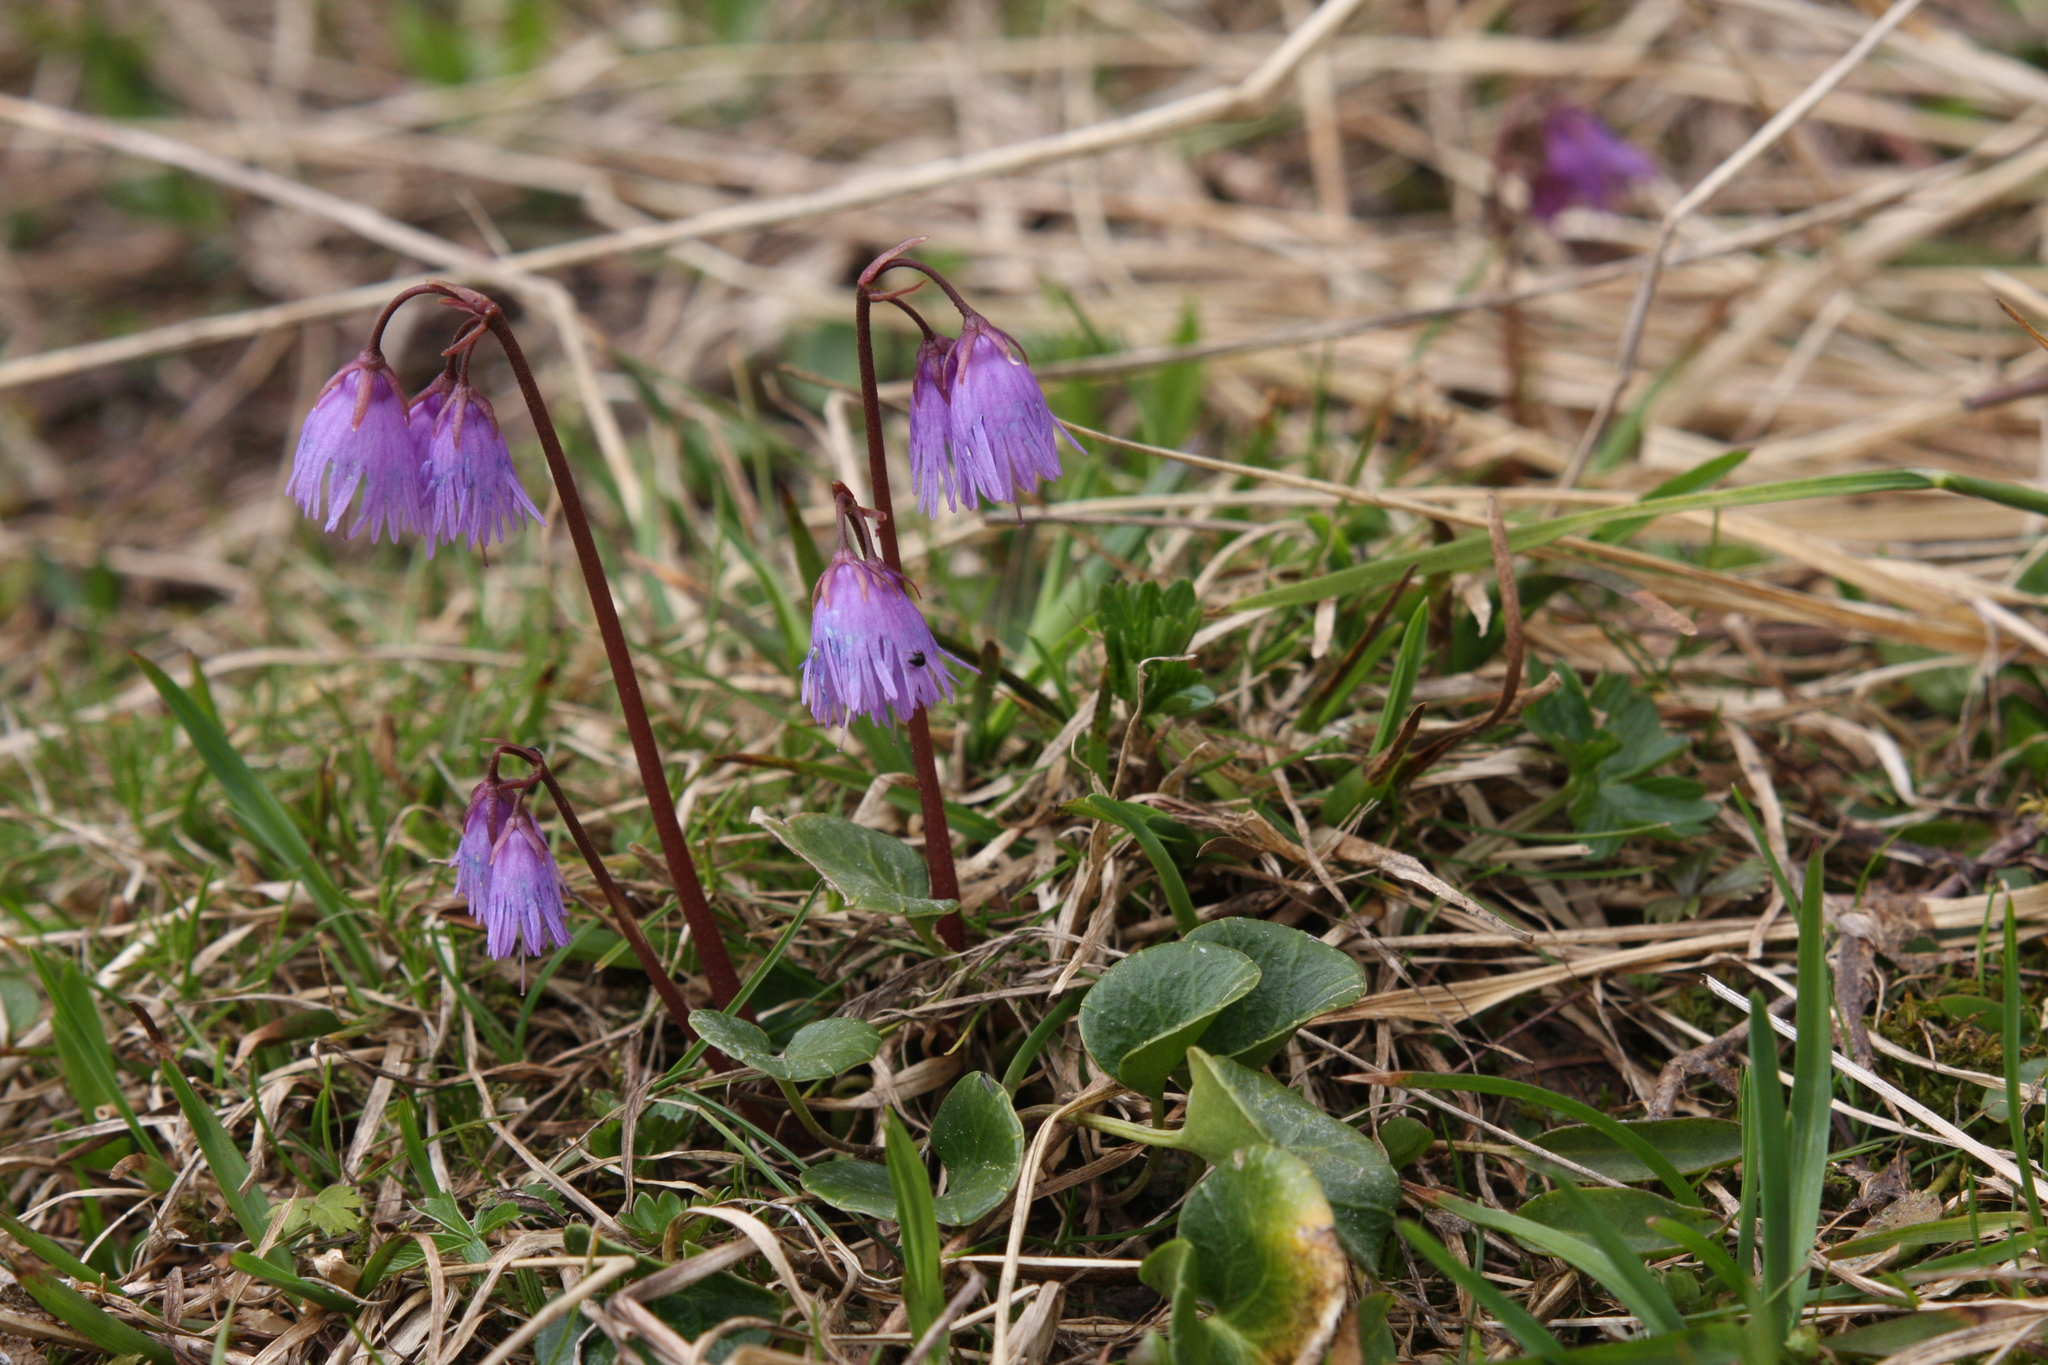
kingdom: Plantae
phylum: Tracheophyta
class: Magnoliopsida
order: Ericales
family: Primulaceae
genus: Soldanella
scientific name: Soldanella alpina
